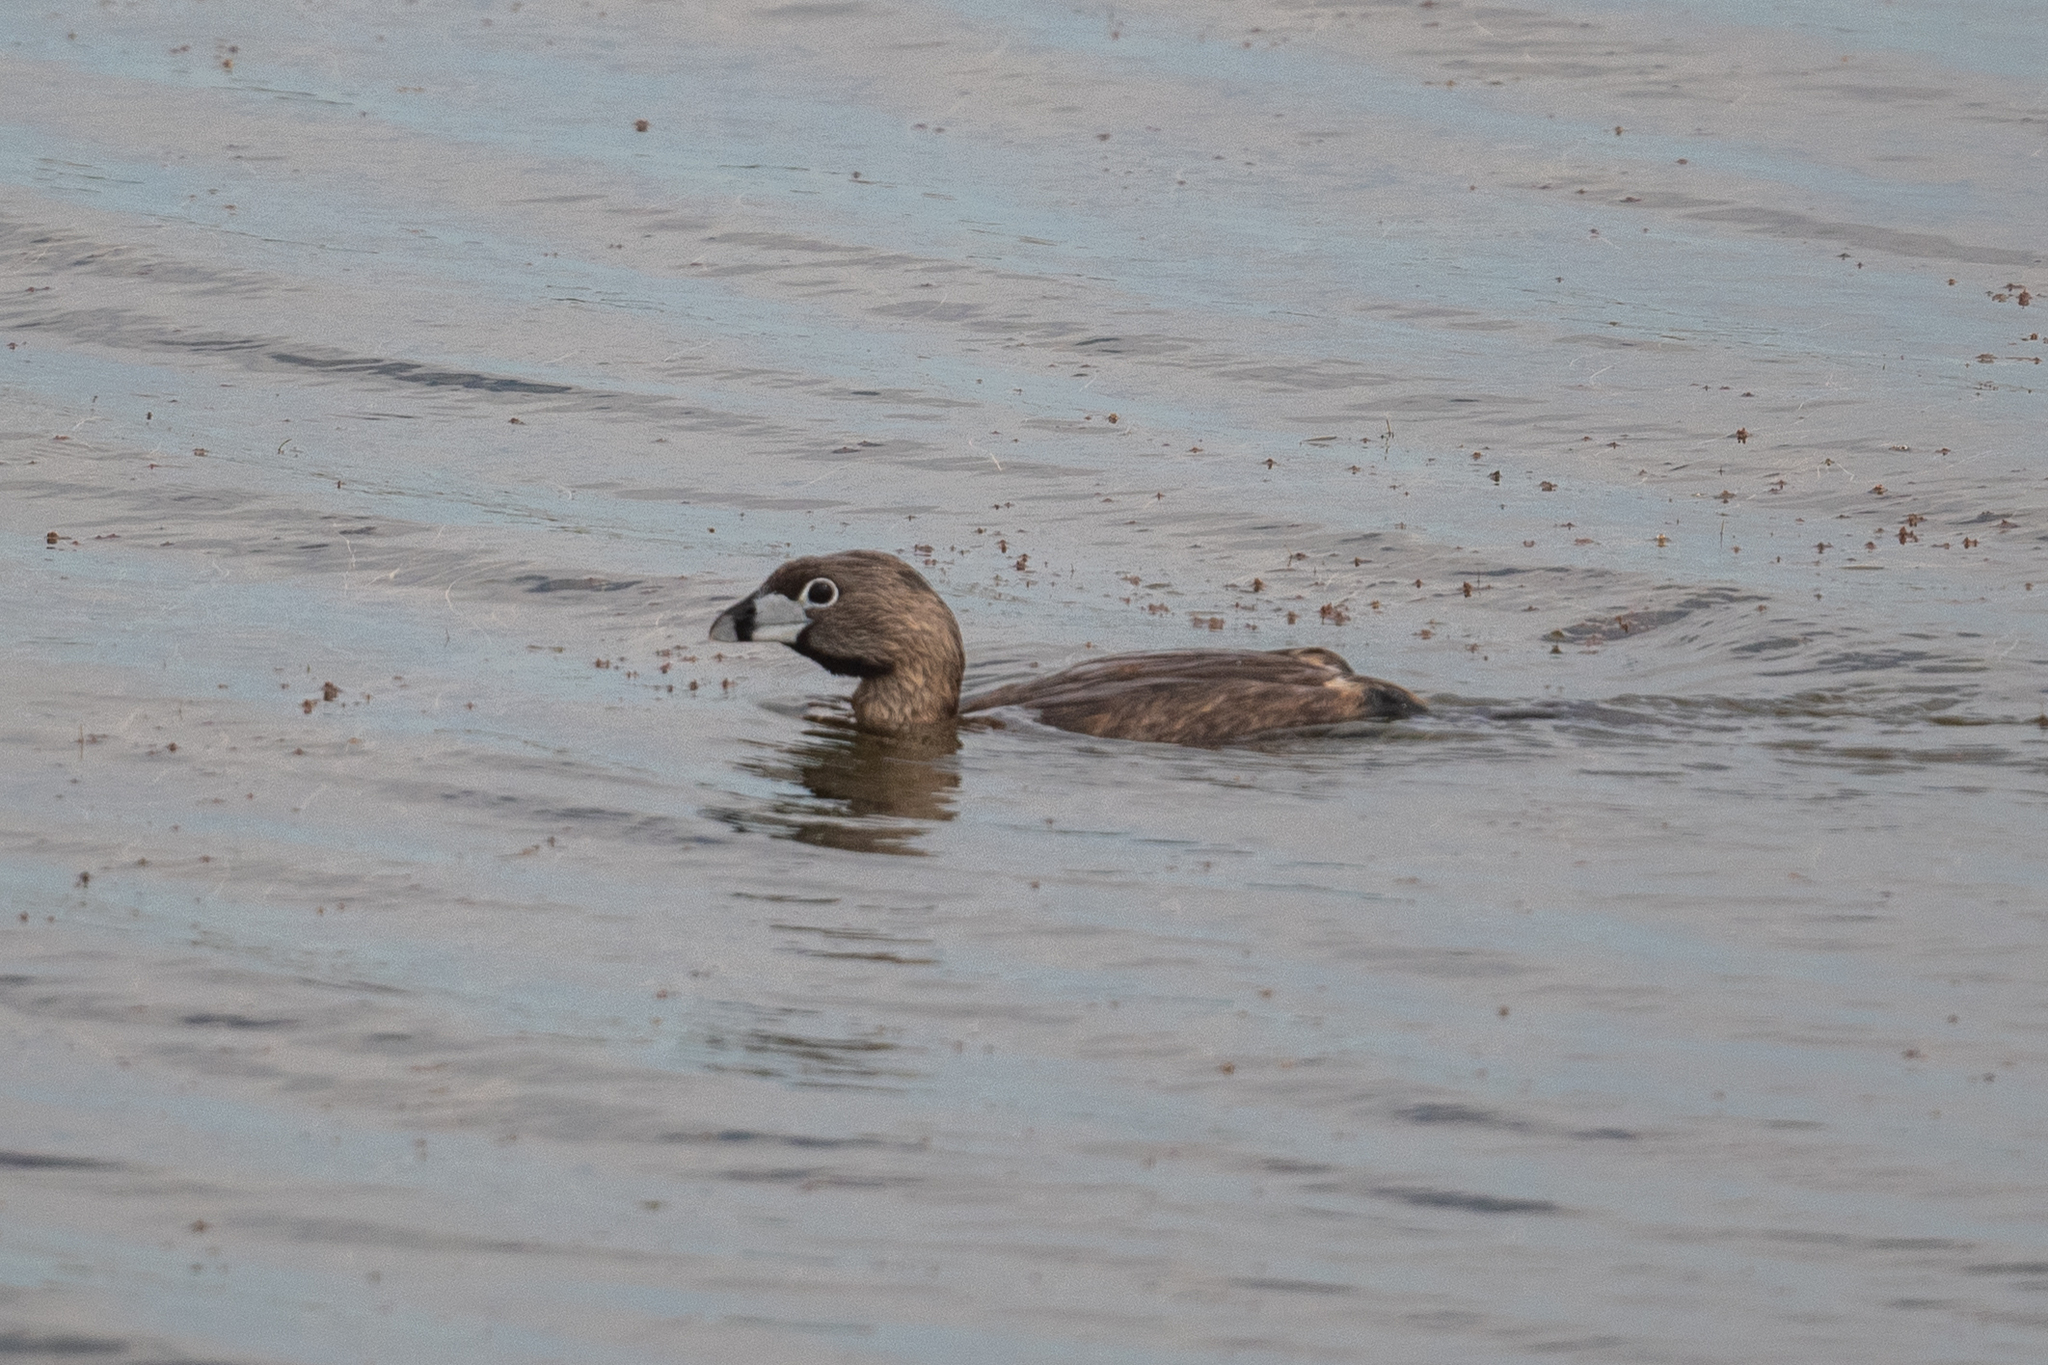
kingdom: Animalia
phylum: Chordata
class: Aves
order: Podicipediformes
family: Podicipedidae
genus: Podilymbus
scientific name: Podilymbus podiceps
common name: Pied-billed grebe
